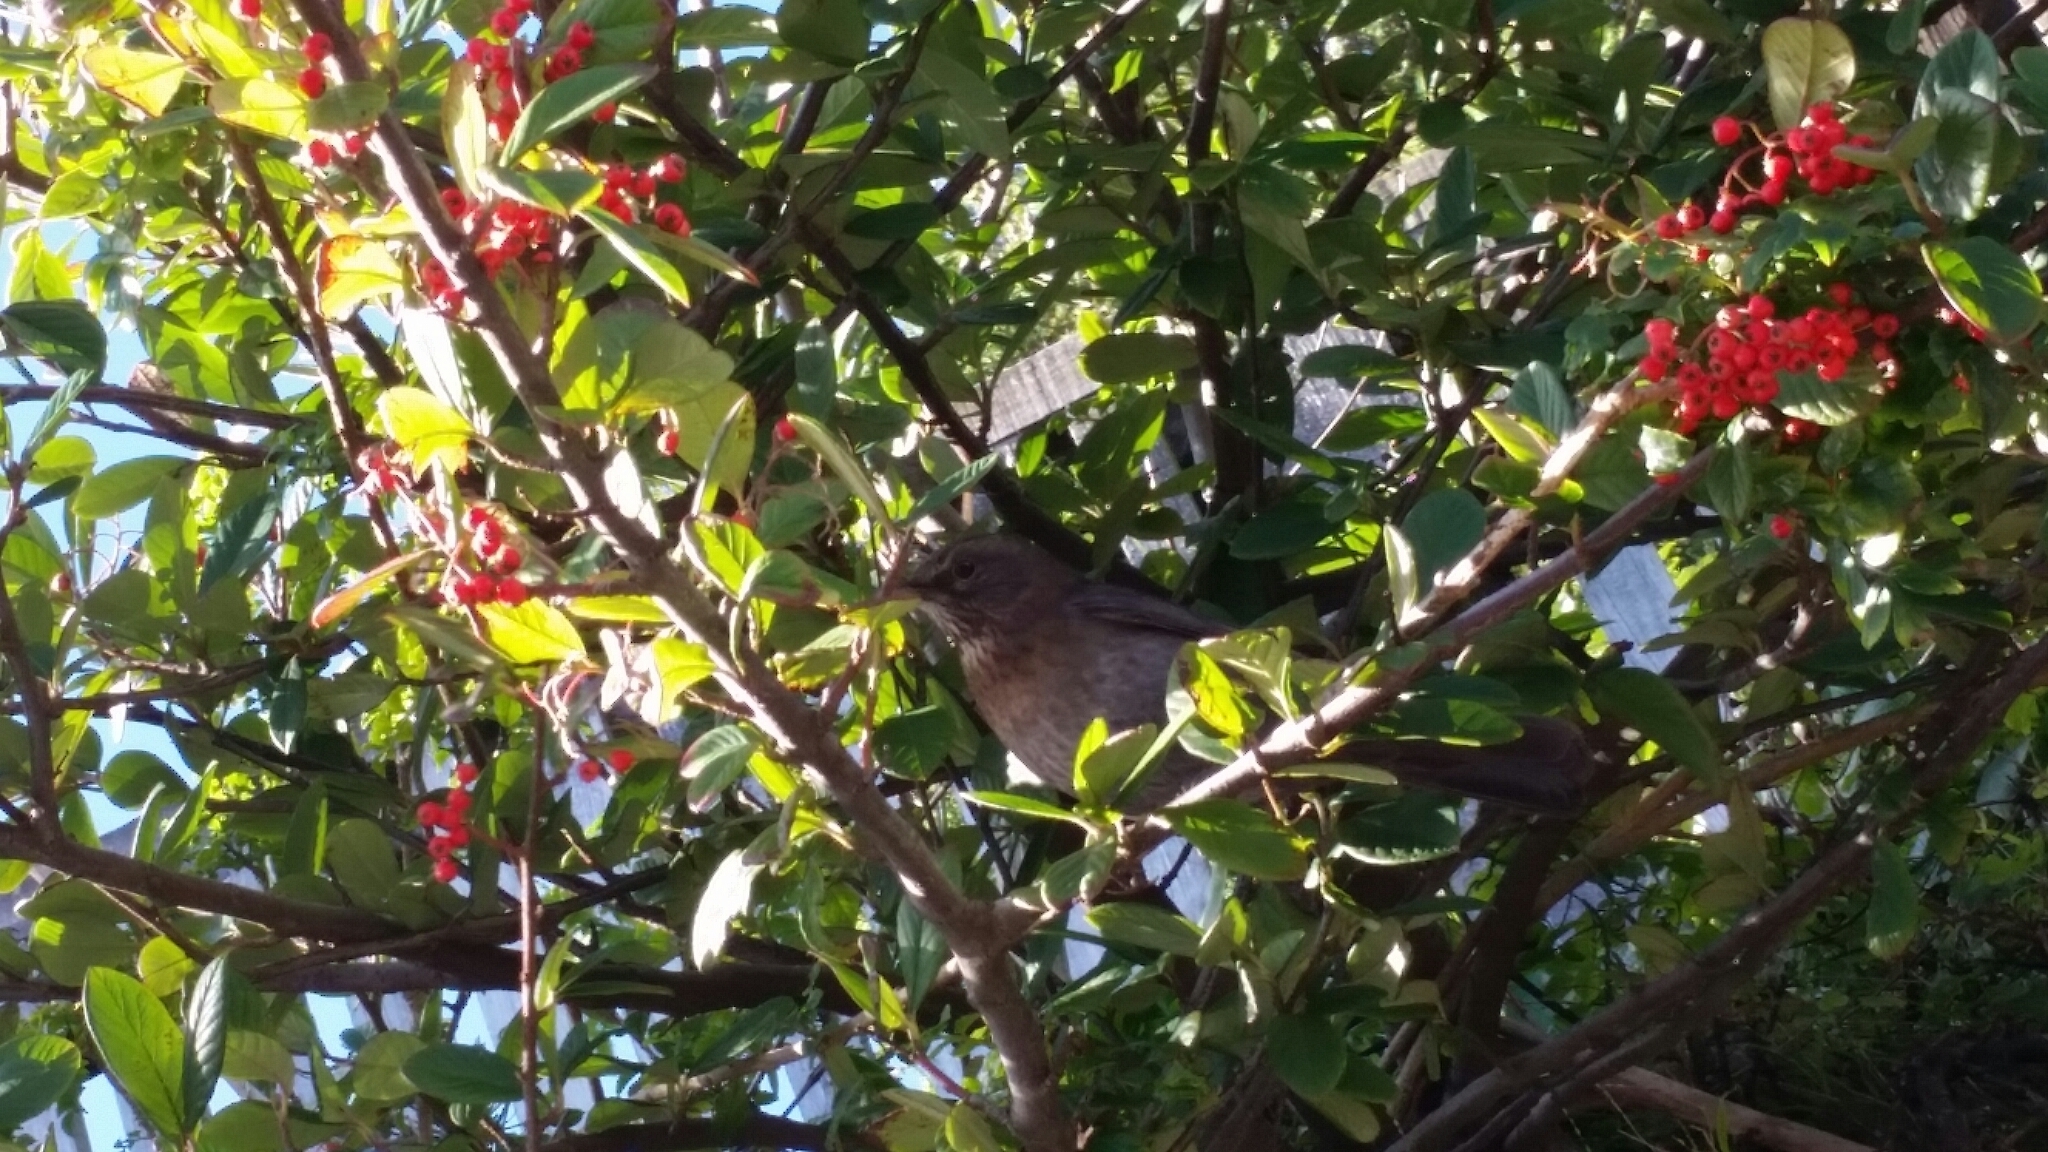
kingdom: Animalia
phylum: Chordata
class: Aves
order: Passeriformes
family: Turdidae
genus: Turdus
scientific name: Turdus merula
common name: Common blackbird
